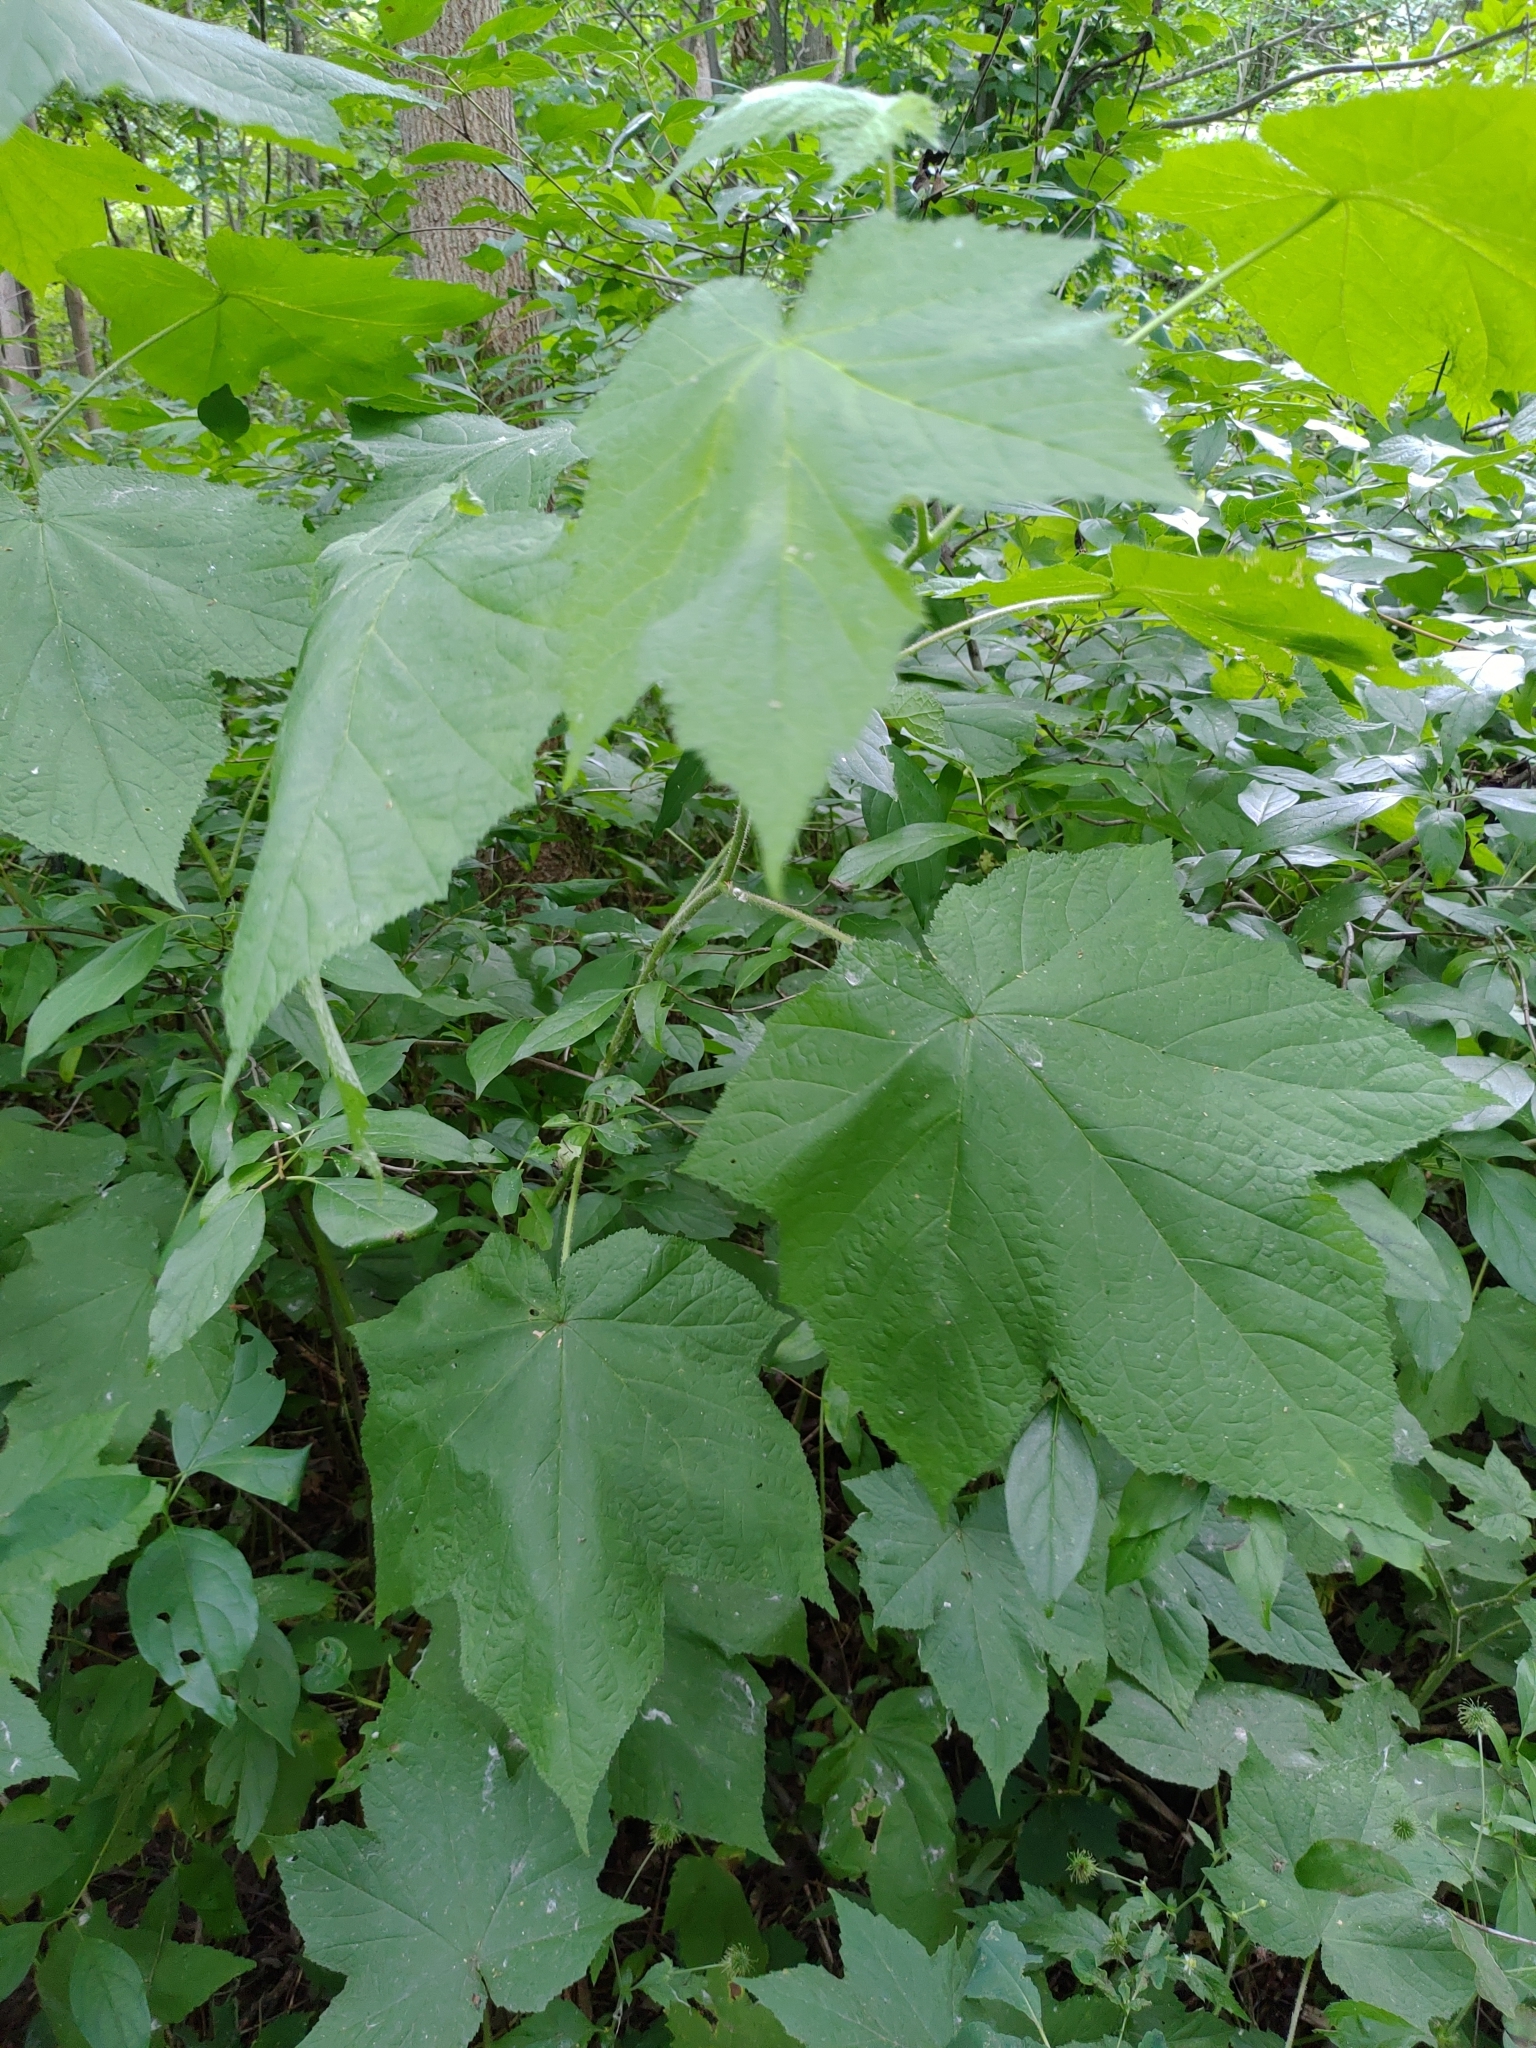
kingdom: Plantae
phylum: Tracheophyta
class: Magnoliopsida
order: Rosales
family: Rosaceae
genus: Rubus
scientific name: Rubus odoratus
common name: Purple-flowered raspberry
